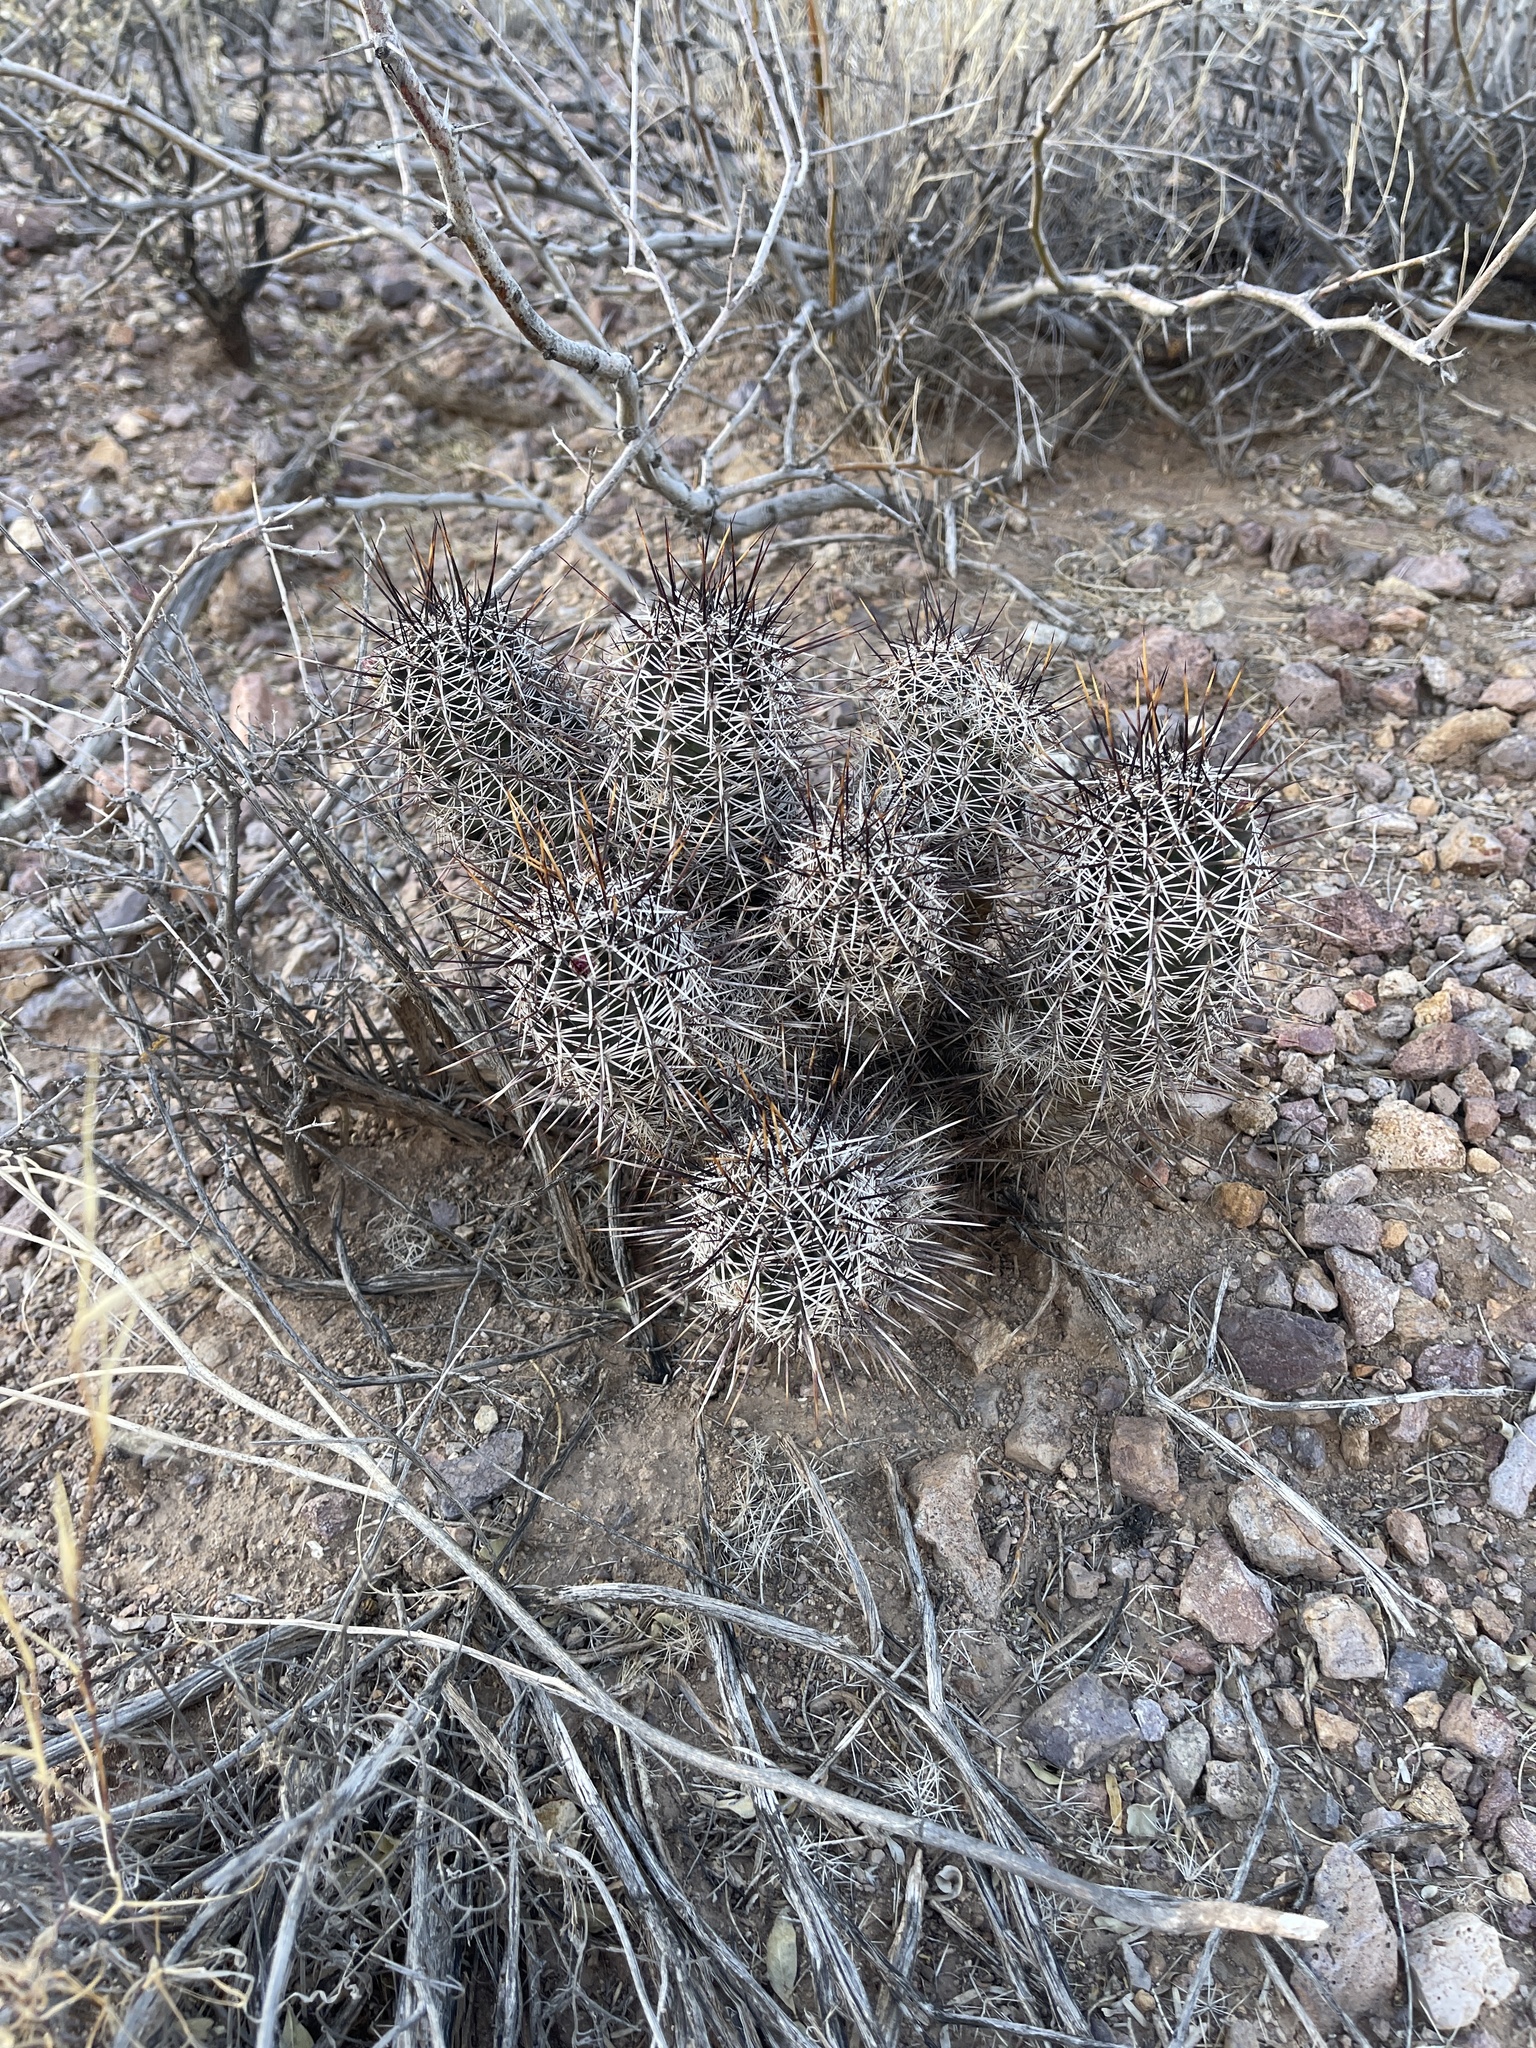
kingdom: Plantae
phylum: Tracheophyta
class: Magnoliopsida
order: Caryophyllales
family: Cactaceae
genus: Echinocereus
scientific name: Echinocereus fendleri
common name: Fendler's hedgehog cactus
